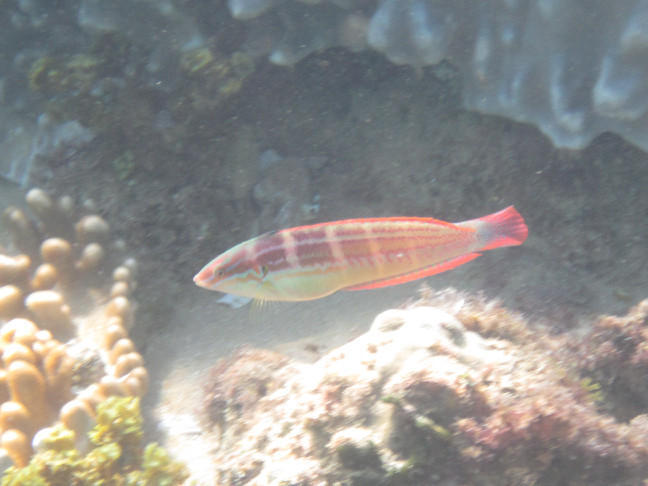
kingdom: Animalia
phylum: Chordata
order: Perciformes
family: Labridae
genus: Coris
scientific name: Coris caudimacula
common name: Spottail coris
